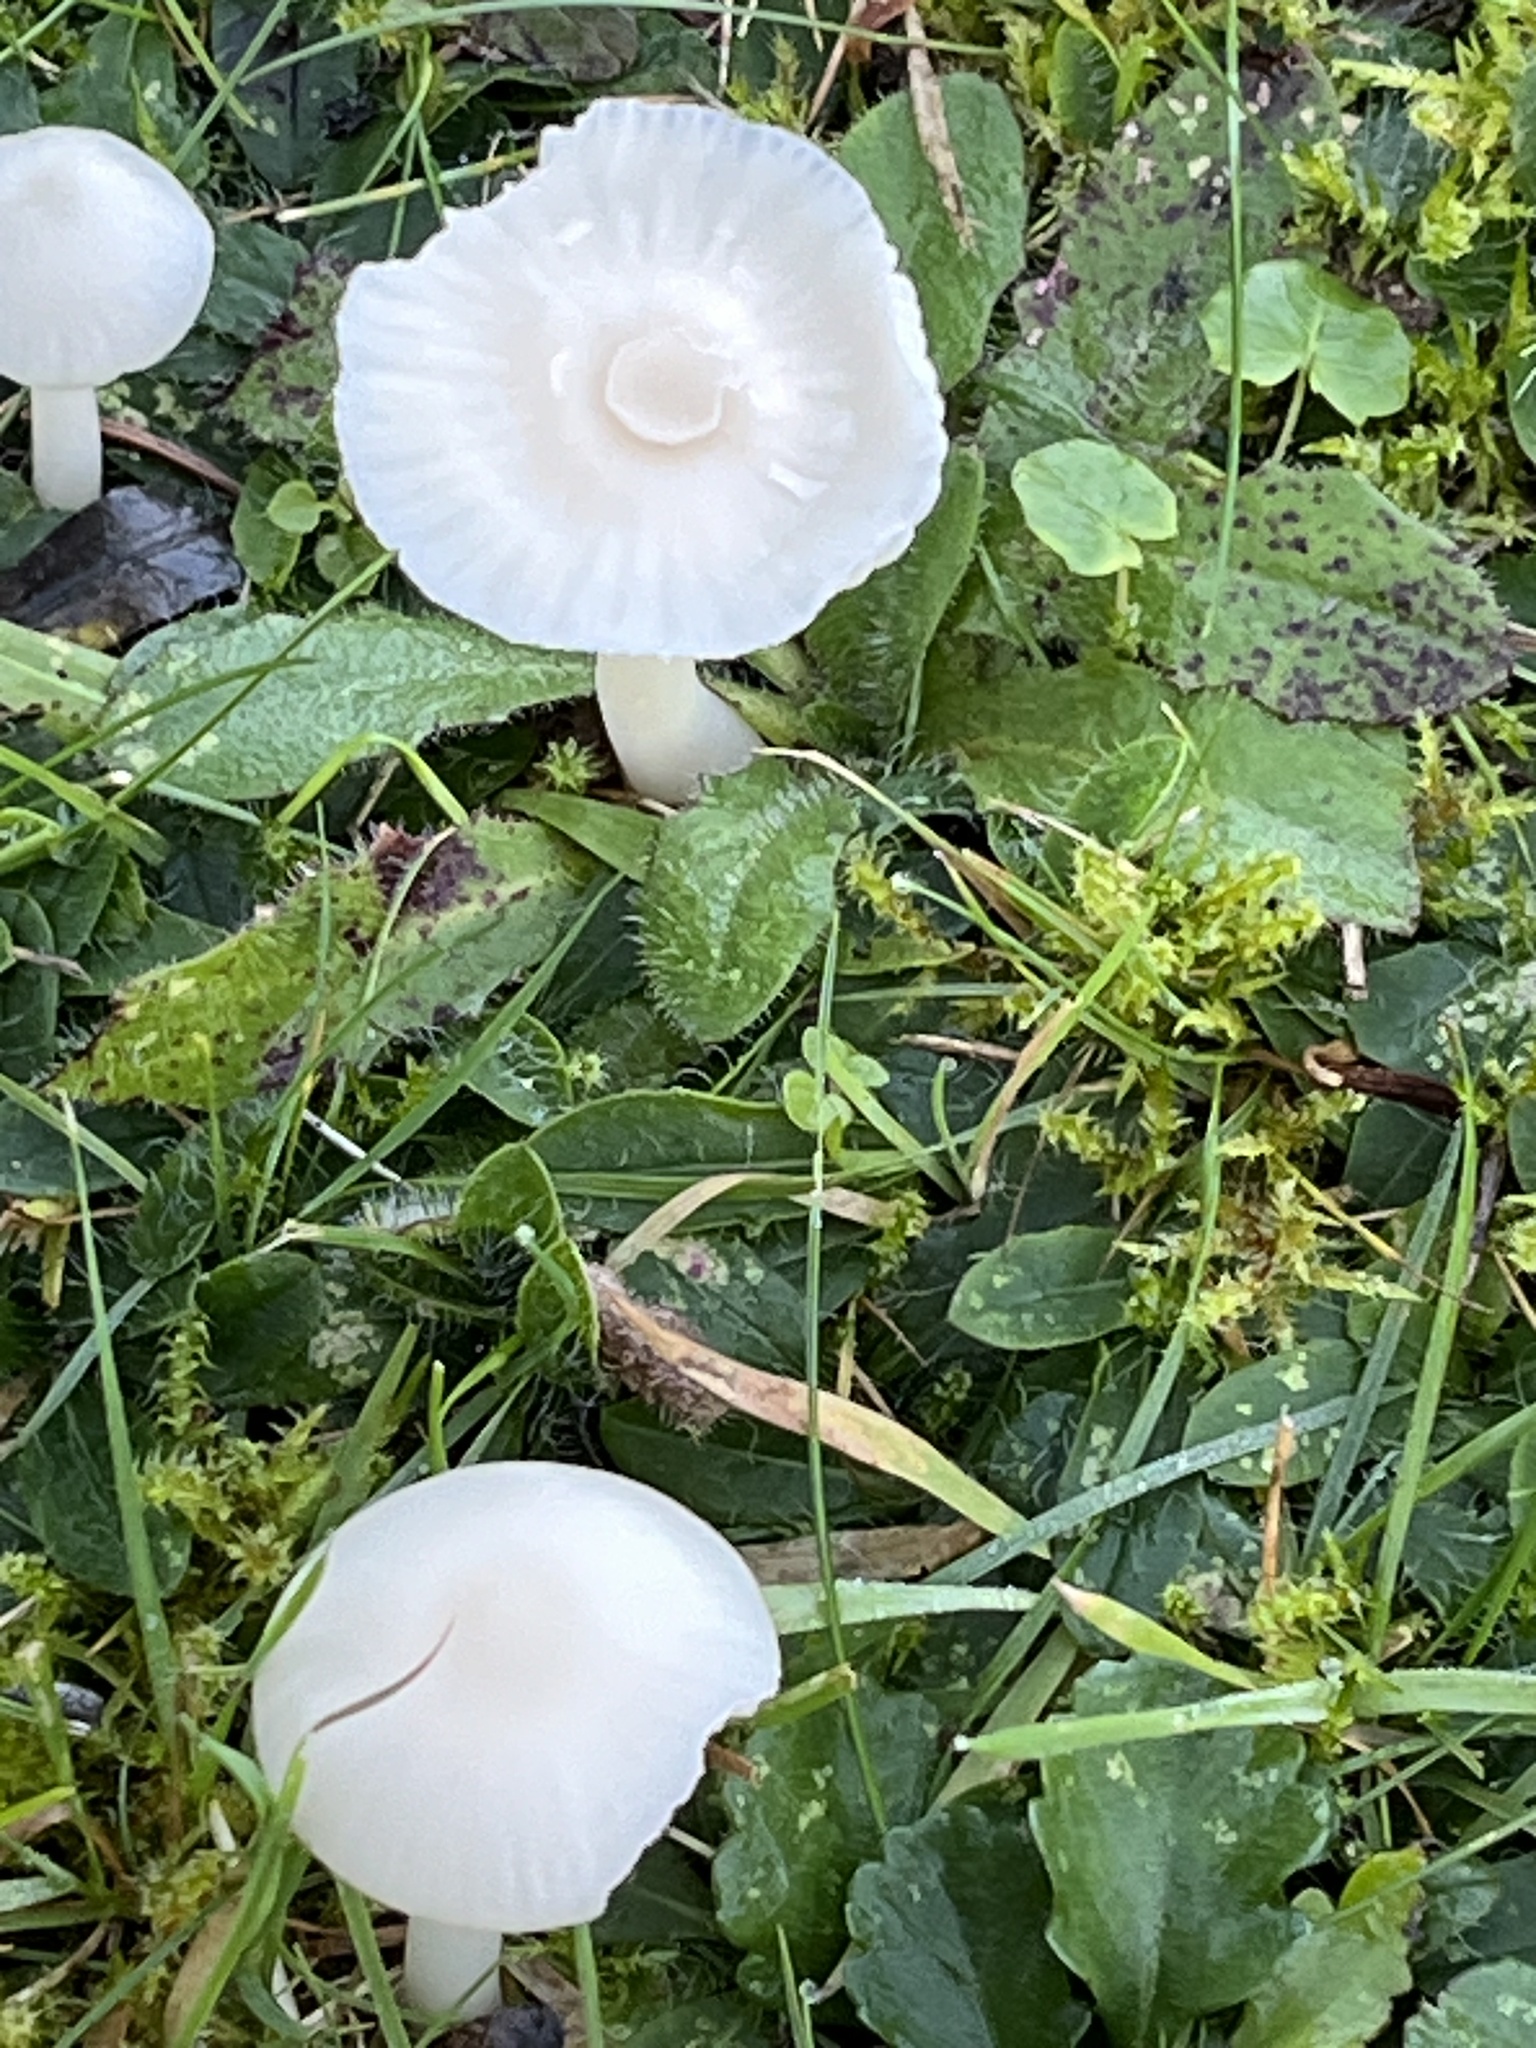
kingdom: Fungi
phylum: Basidiomycota
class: Agaricomycetes
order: Agaricales
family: Hygrophoraceae
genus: Cuphophyllus
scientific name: Cuphophyllus virgineus
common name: Snowy waxcap
